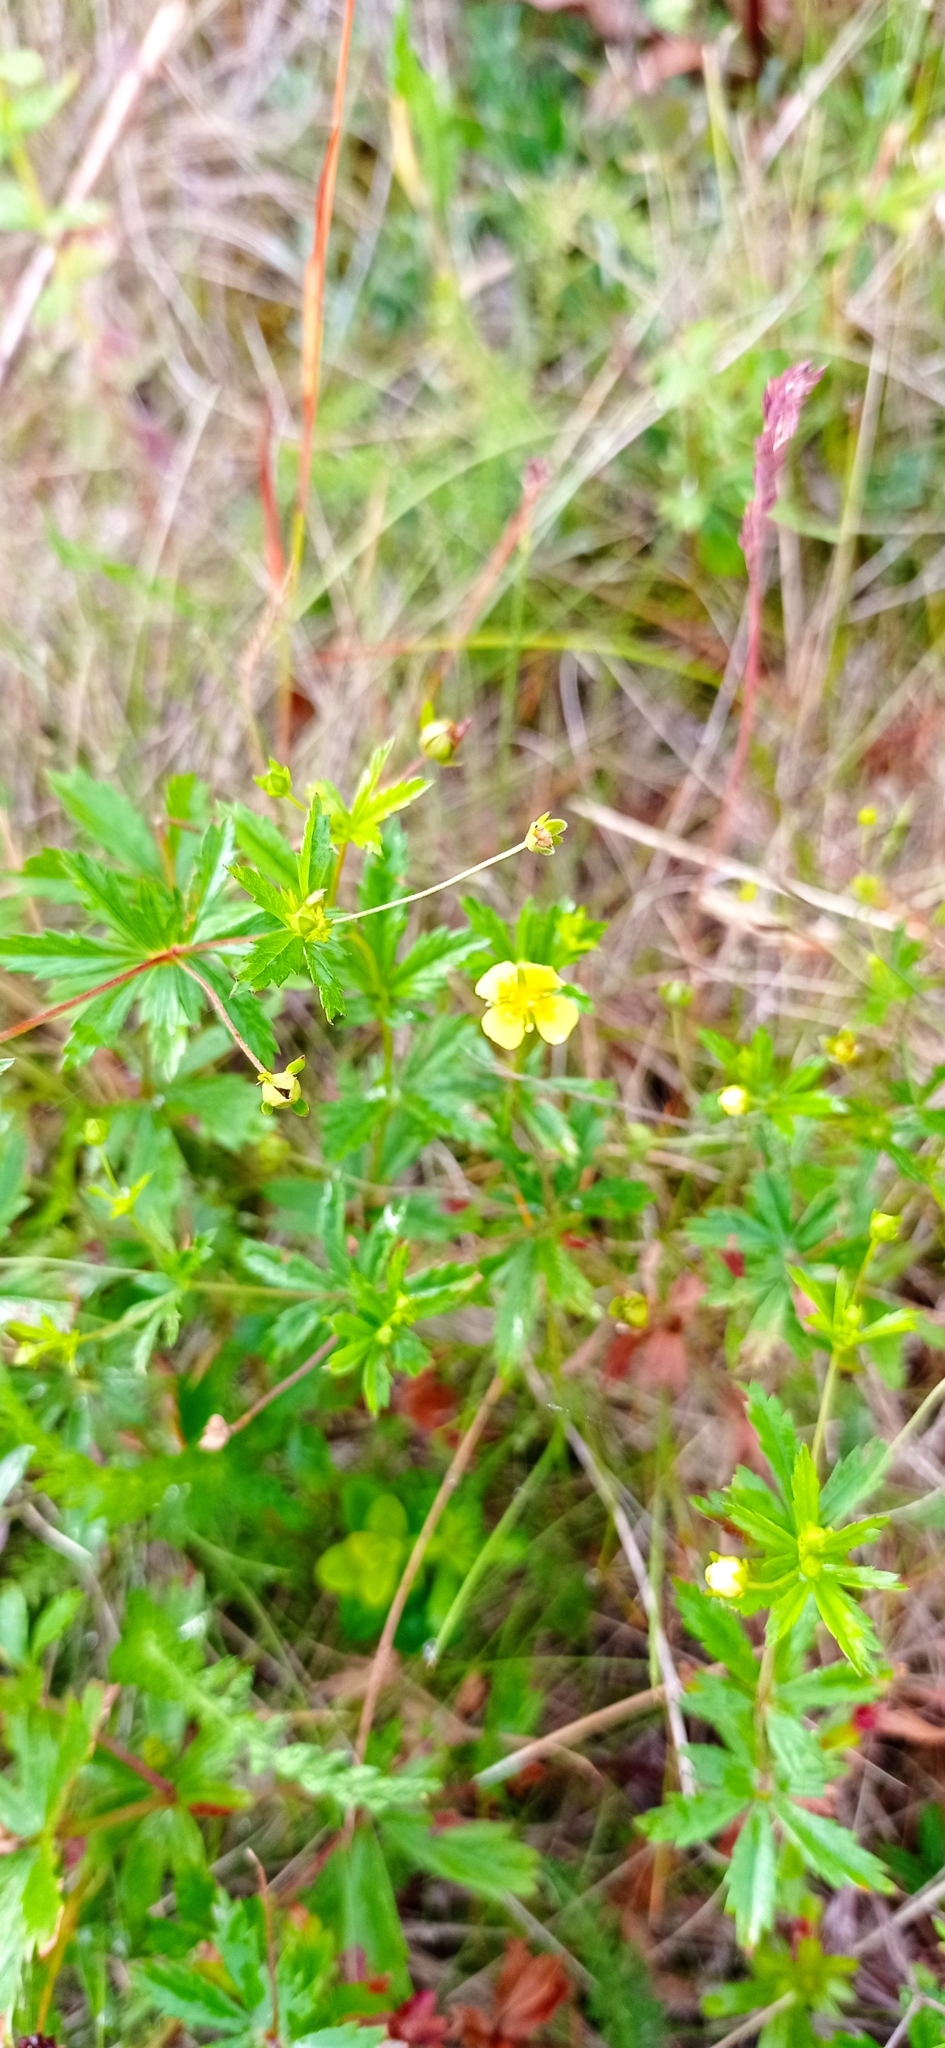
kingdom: Plantae
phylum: Tracheophyta
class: Magnoliopsida
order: Rosales
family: Rosaceae
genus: Potentilla
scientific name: Potentilla erecta
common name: Tormentil
